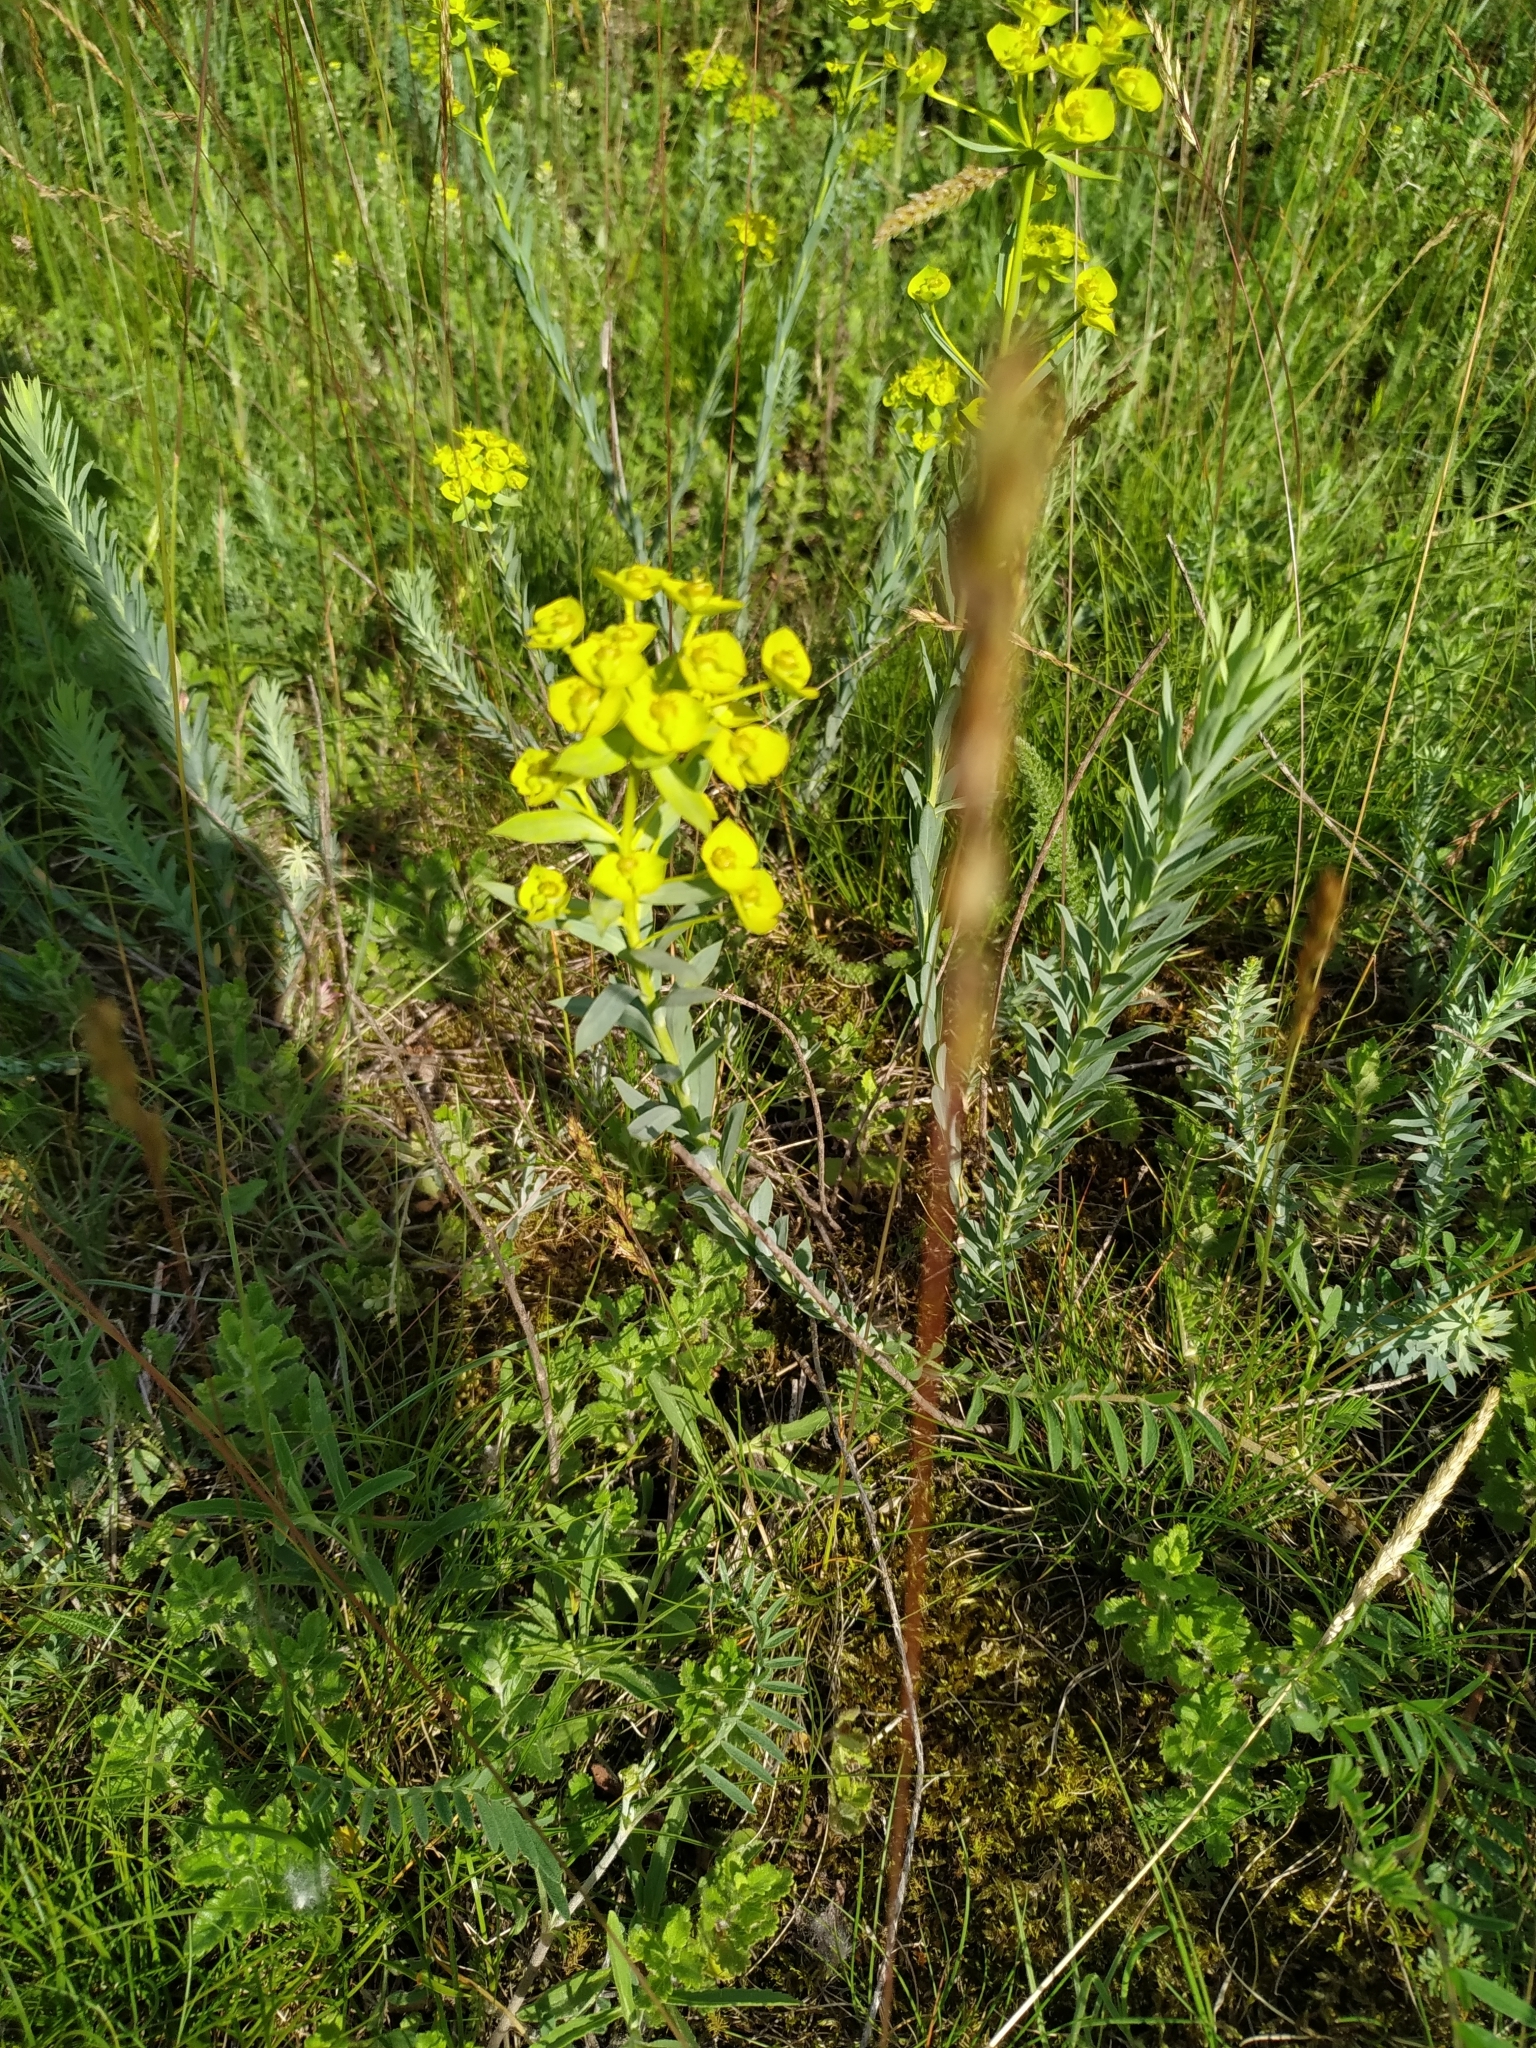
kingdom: Plantae
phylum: Tracheophyta
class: Magnoliopsida
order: Malpighiales
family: Euphorbiaceae
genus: Euphorbia
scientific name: Euphorbia seguieriana
